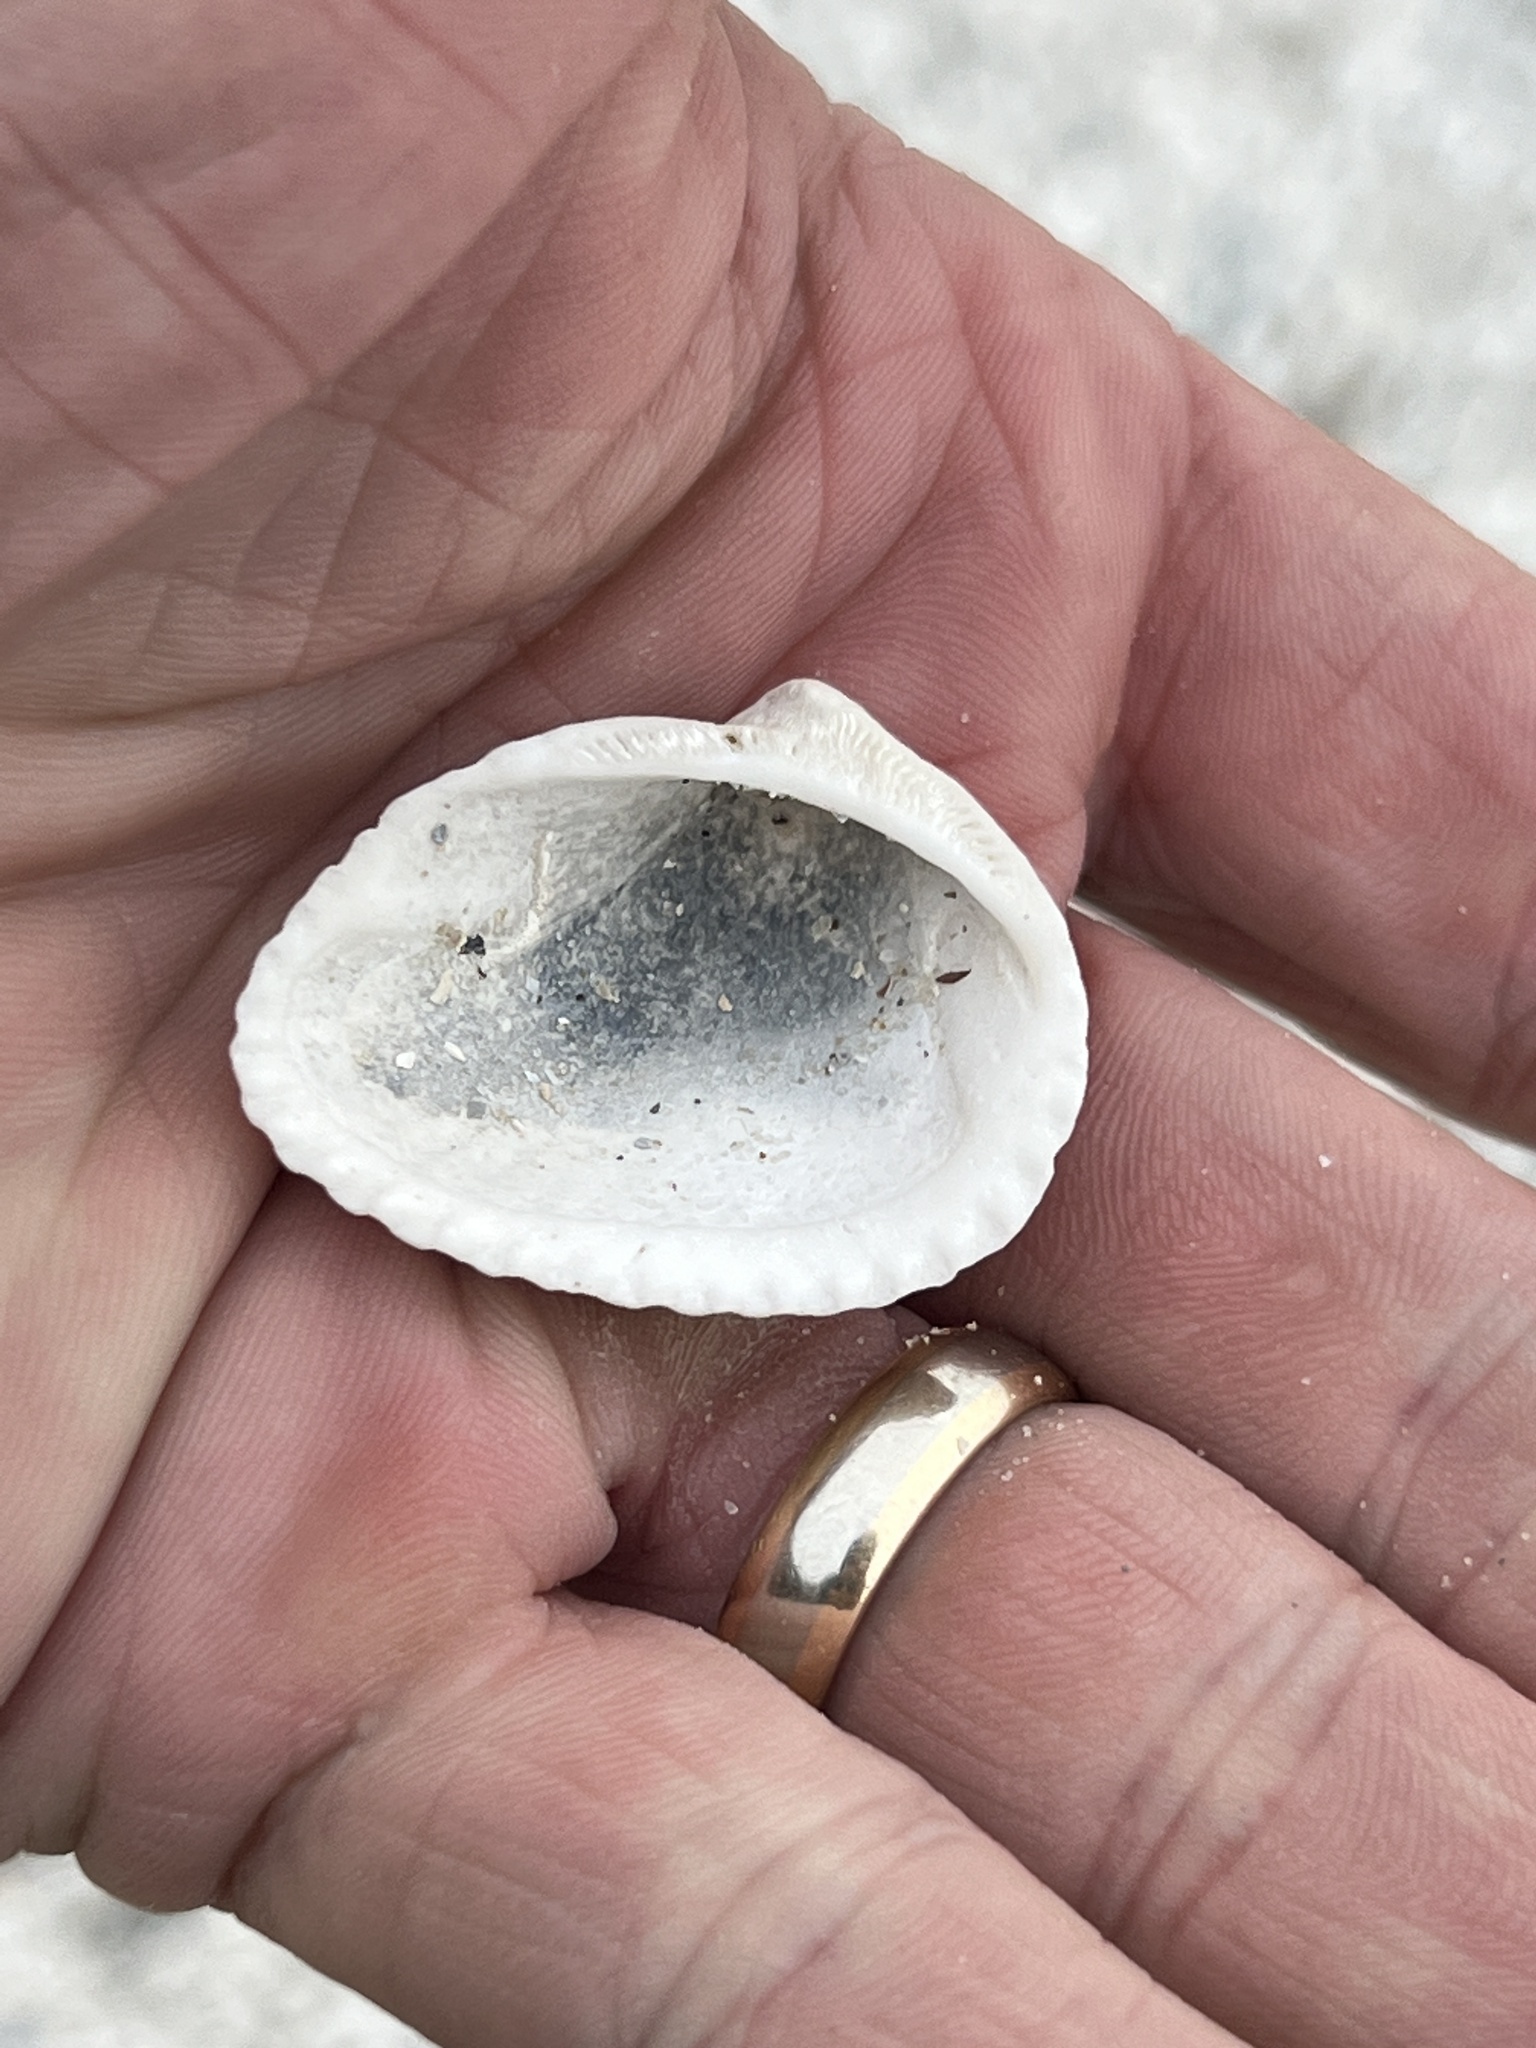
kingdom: Animalia
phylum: Mollusca
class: Bivalvia
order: Arcida
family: Noetiidae
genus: Noetia
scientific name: Noetia ponderosa
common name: Ponderous ark
